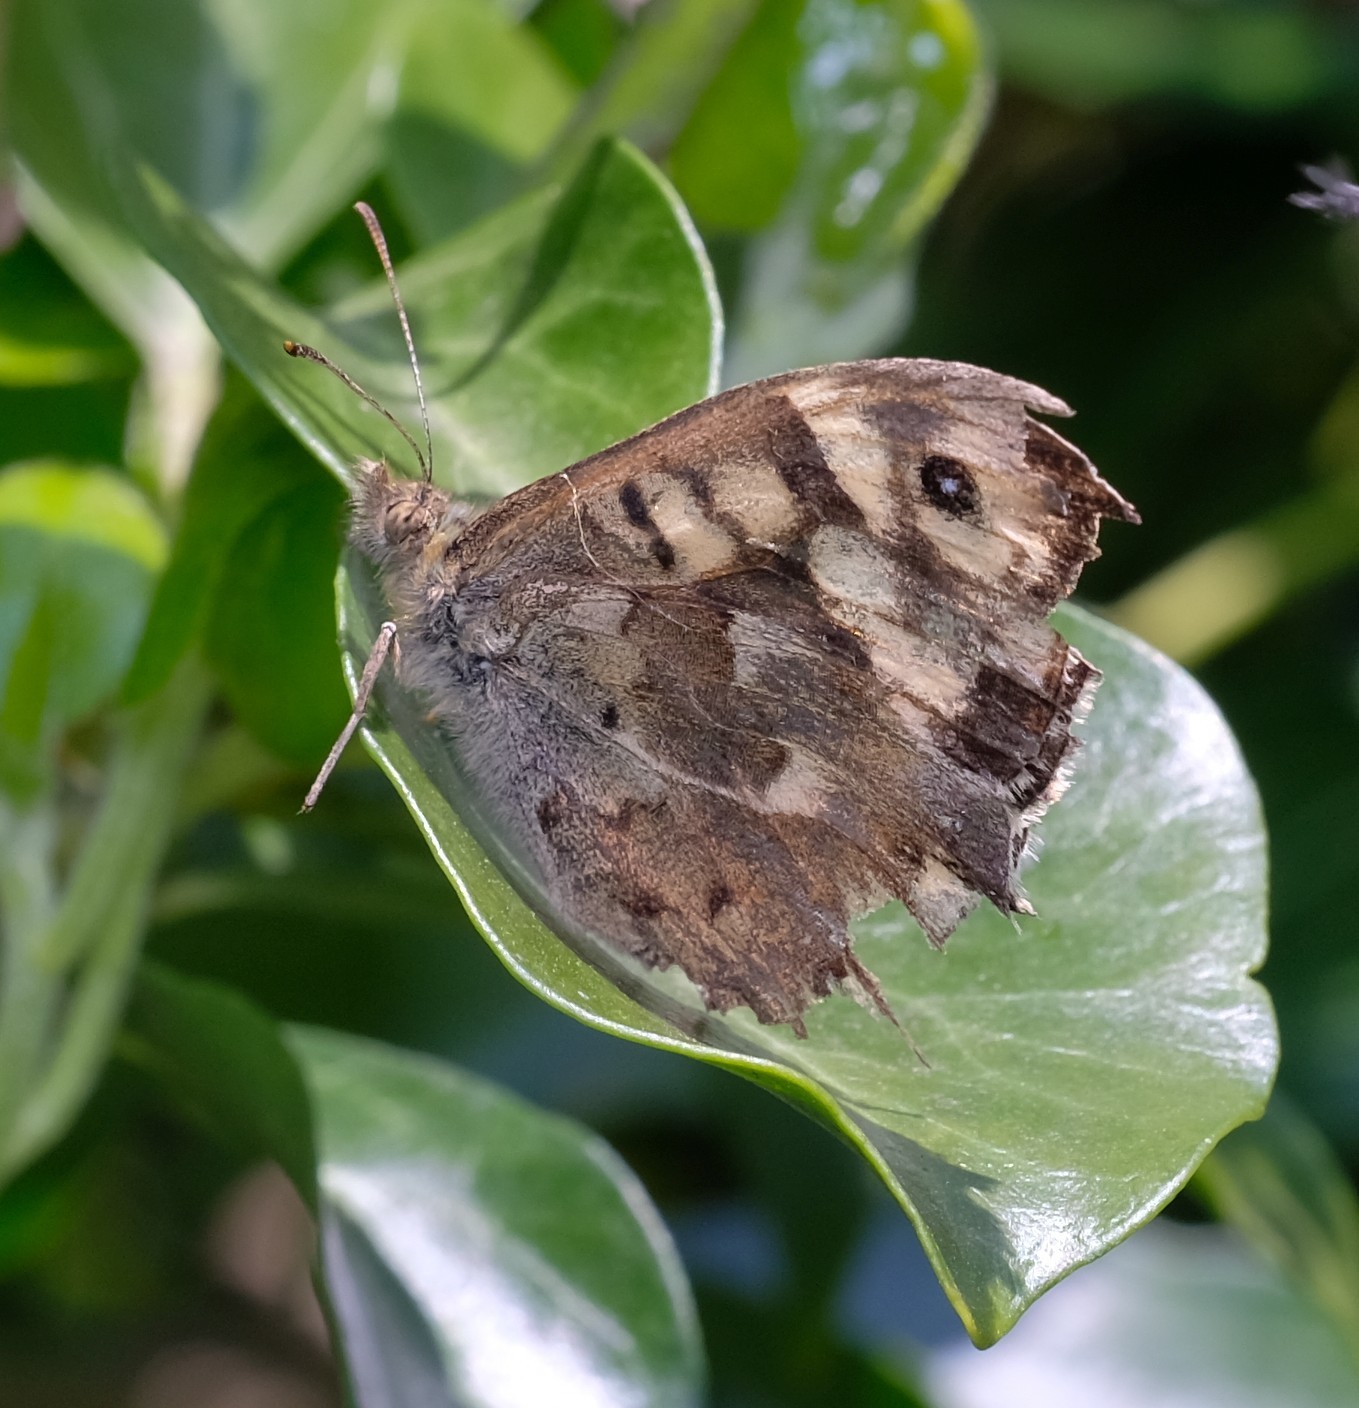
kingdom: Animalia
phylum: Arthropoda
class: Insecta
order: Lepidoptera
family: Nymphalidae
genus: Pararge
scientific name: Pararge aegeria
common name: Speckled wood
